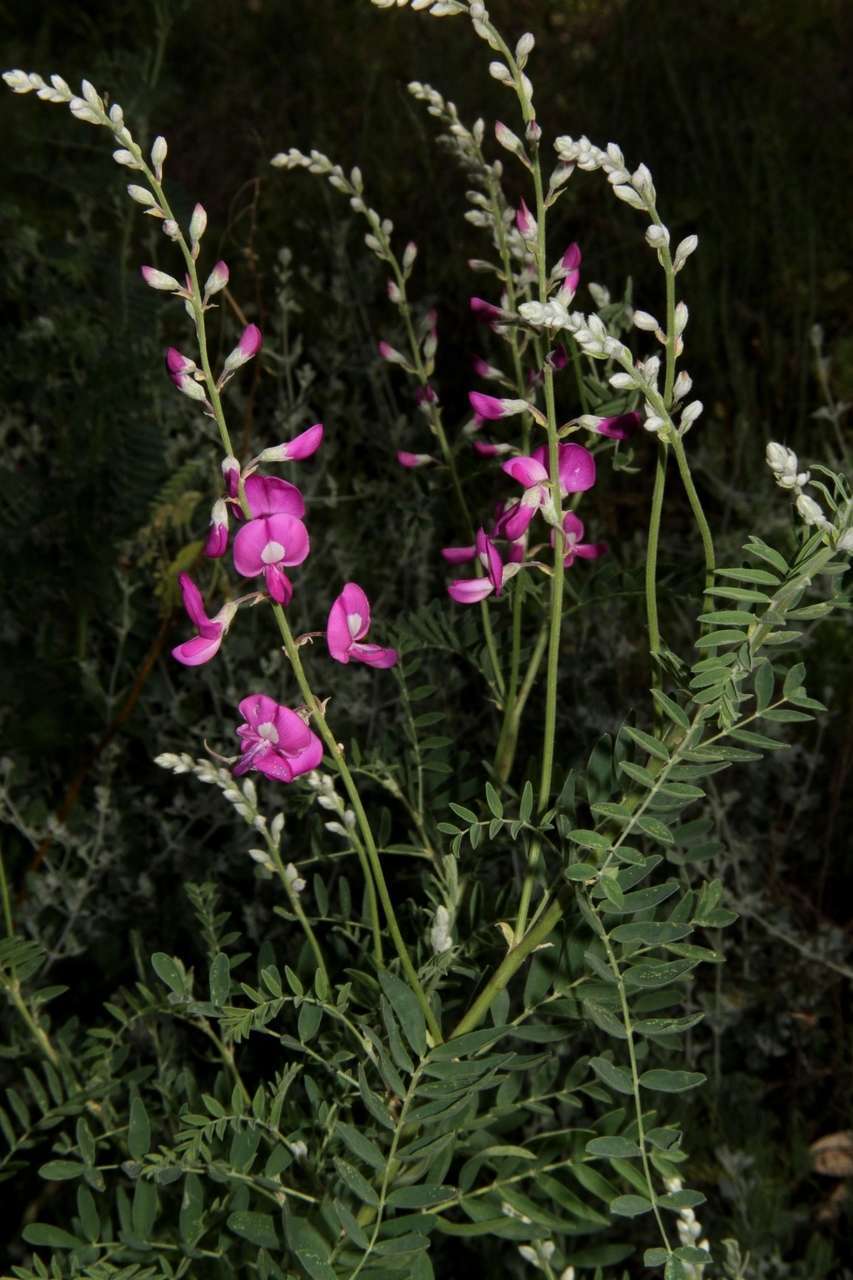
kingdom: Plantae
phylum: Tracheophyta
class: Magnoliopsida
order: Fabales
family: Fabaceae
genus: Swainsona
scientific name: Swainsona greyana
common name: Darling-pea
